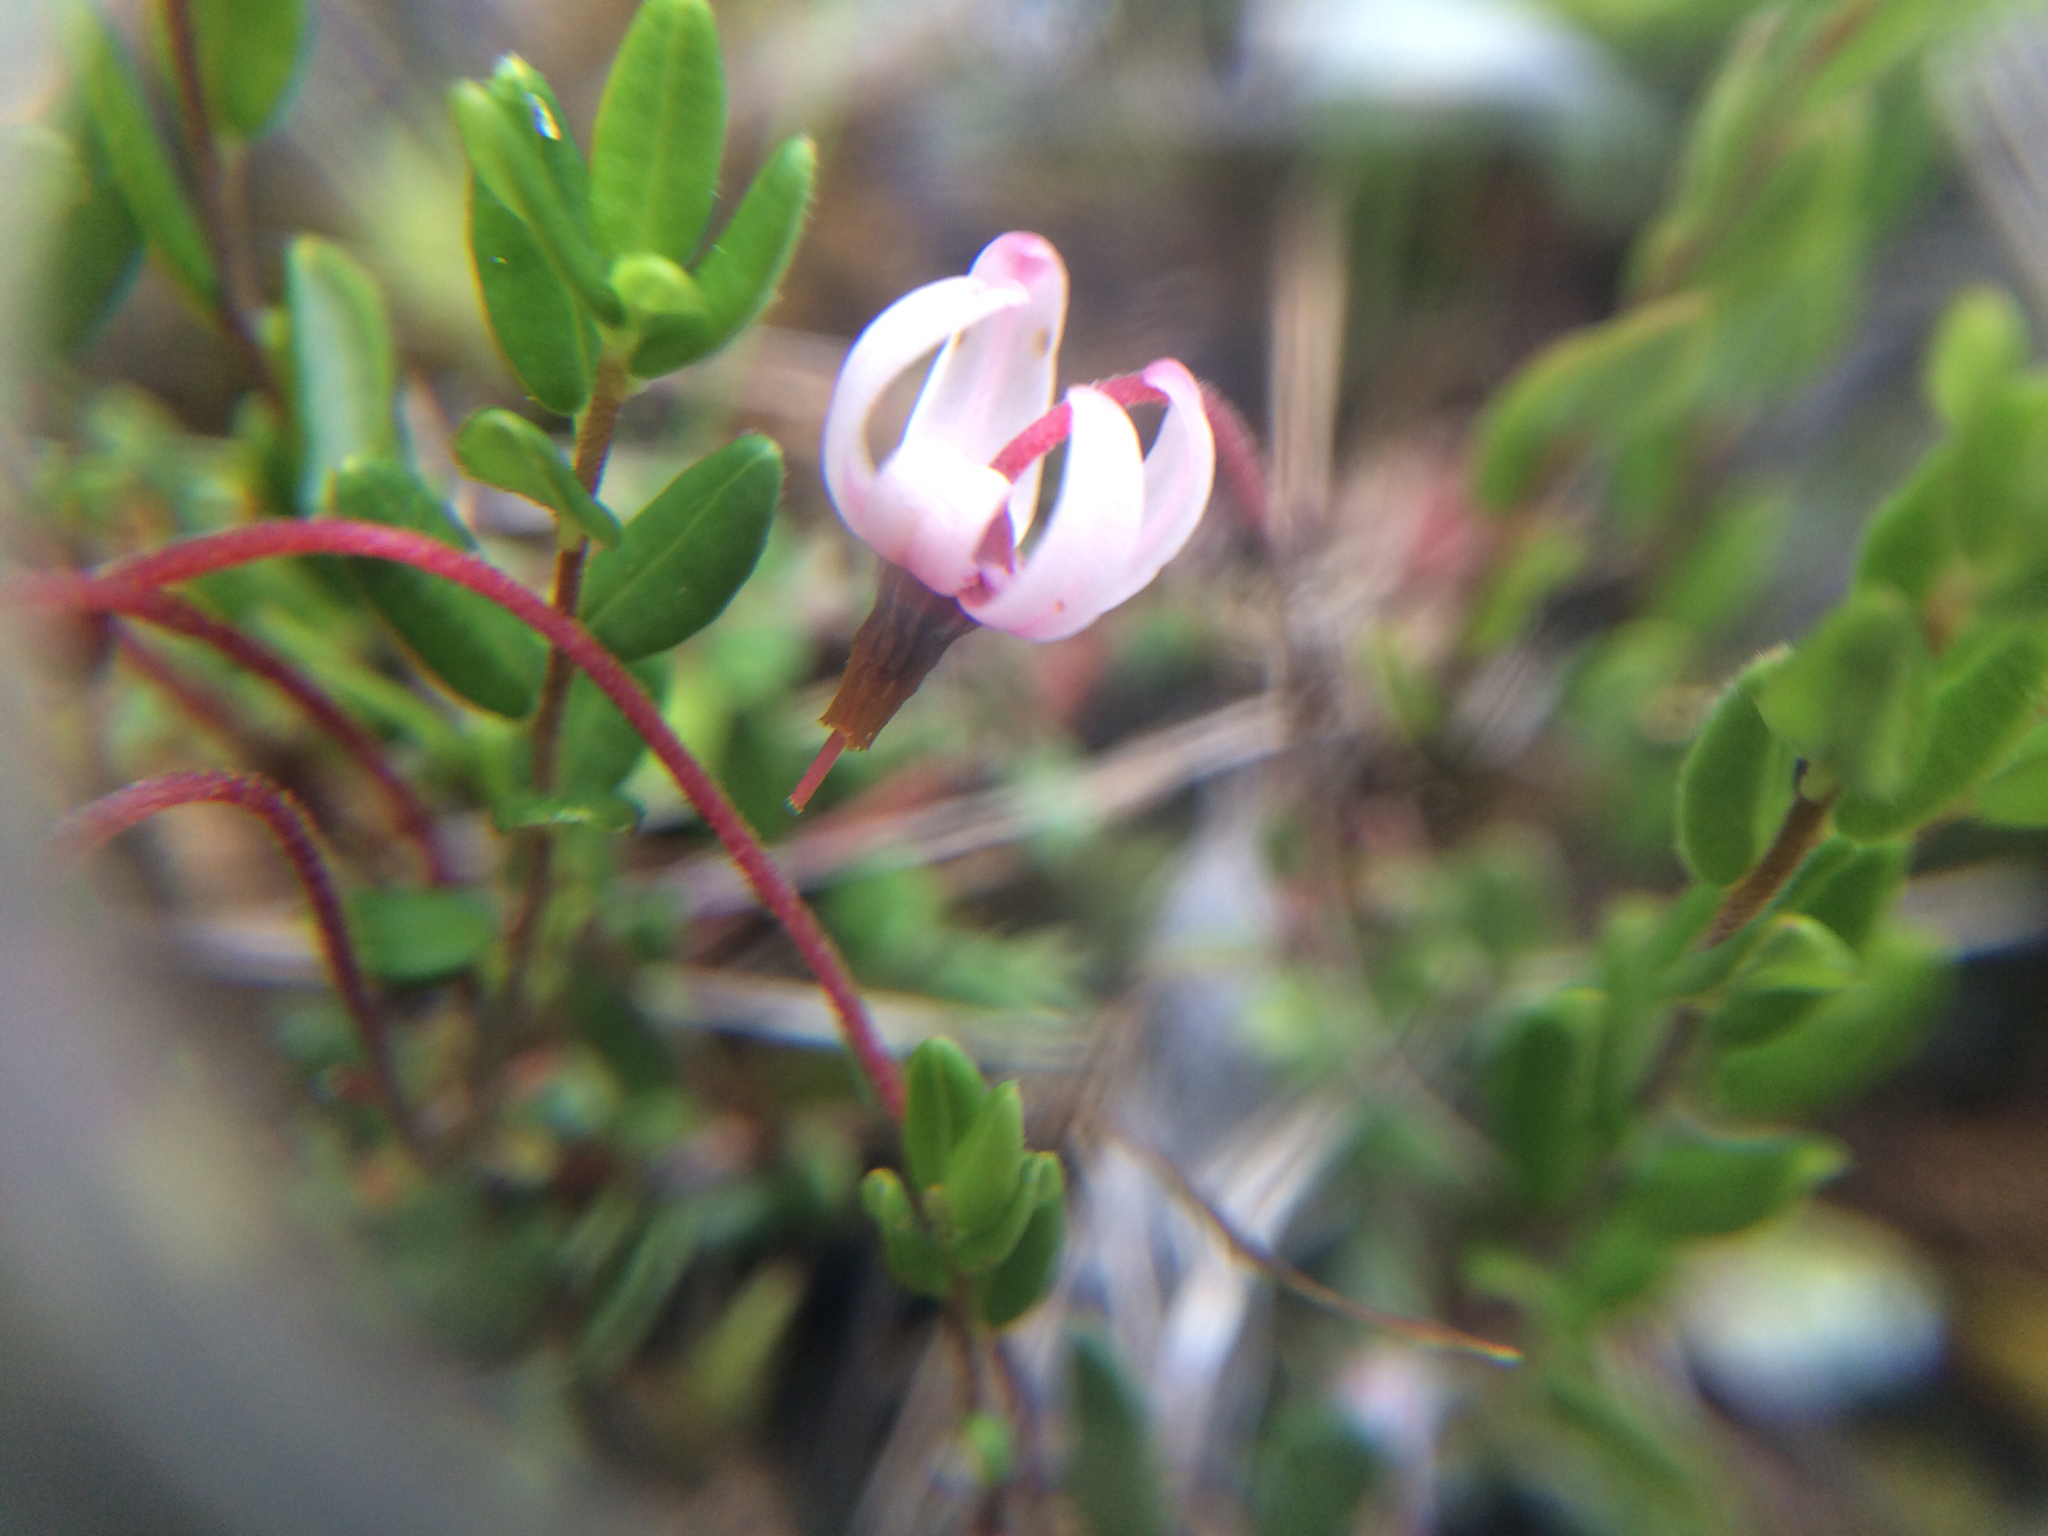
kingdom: Plantae
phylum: Tracheophyta
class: Magnoliopsida
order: Ericales
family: Ericaceae
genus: Vaccinium
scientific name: Vaccinium oxycoccos
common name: Cranberry
